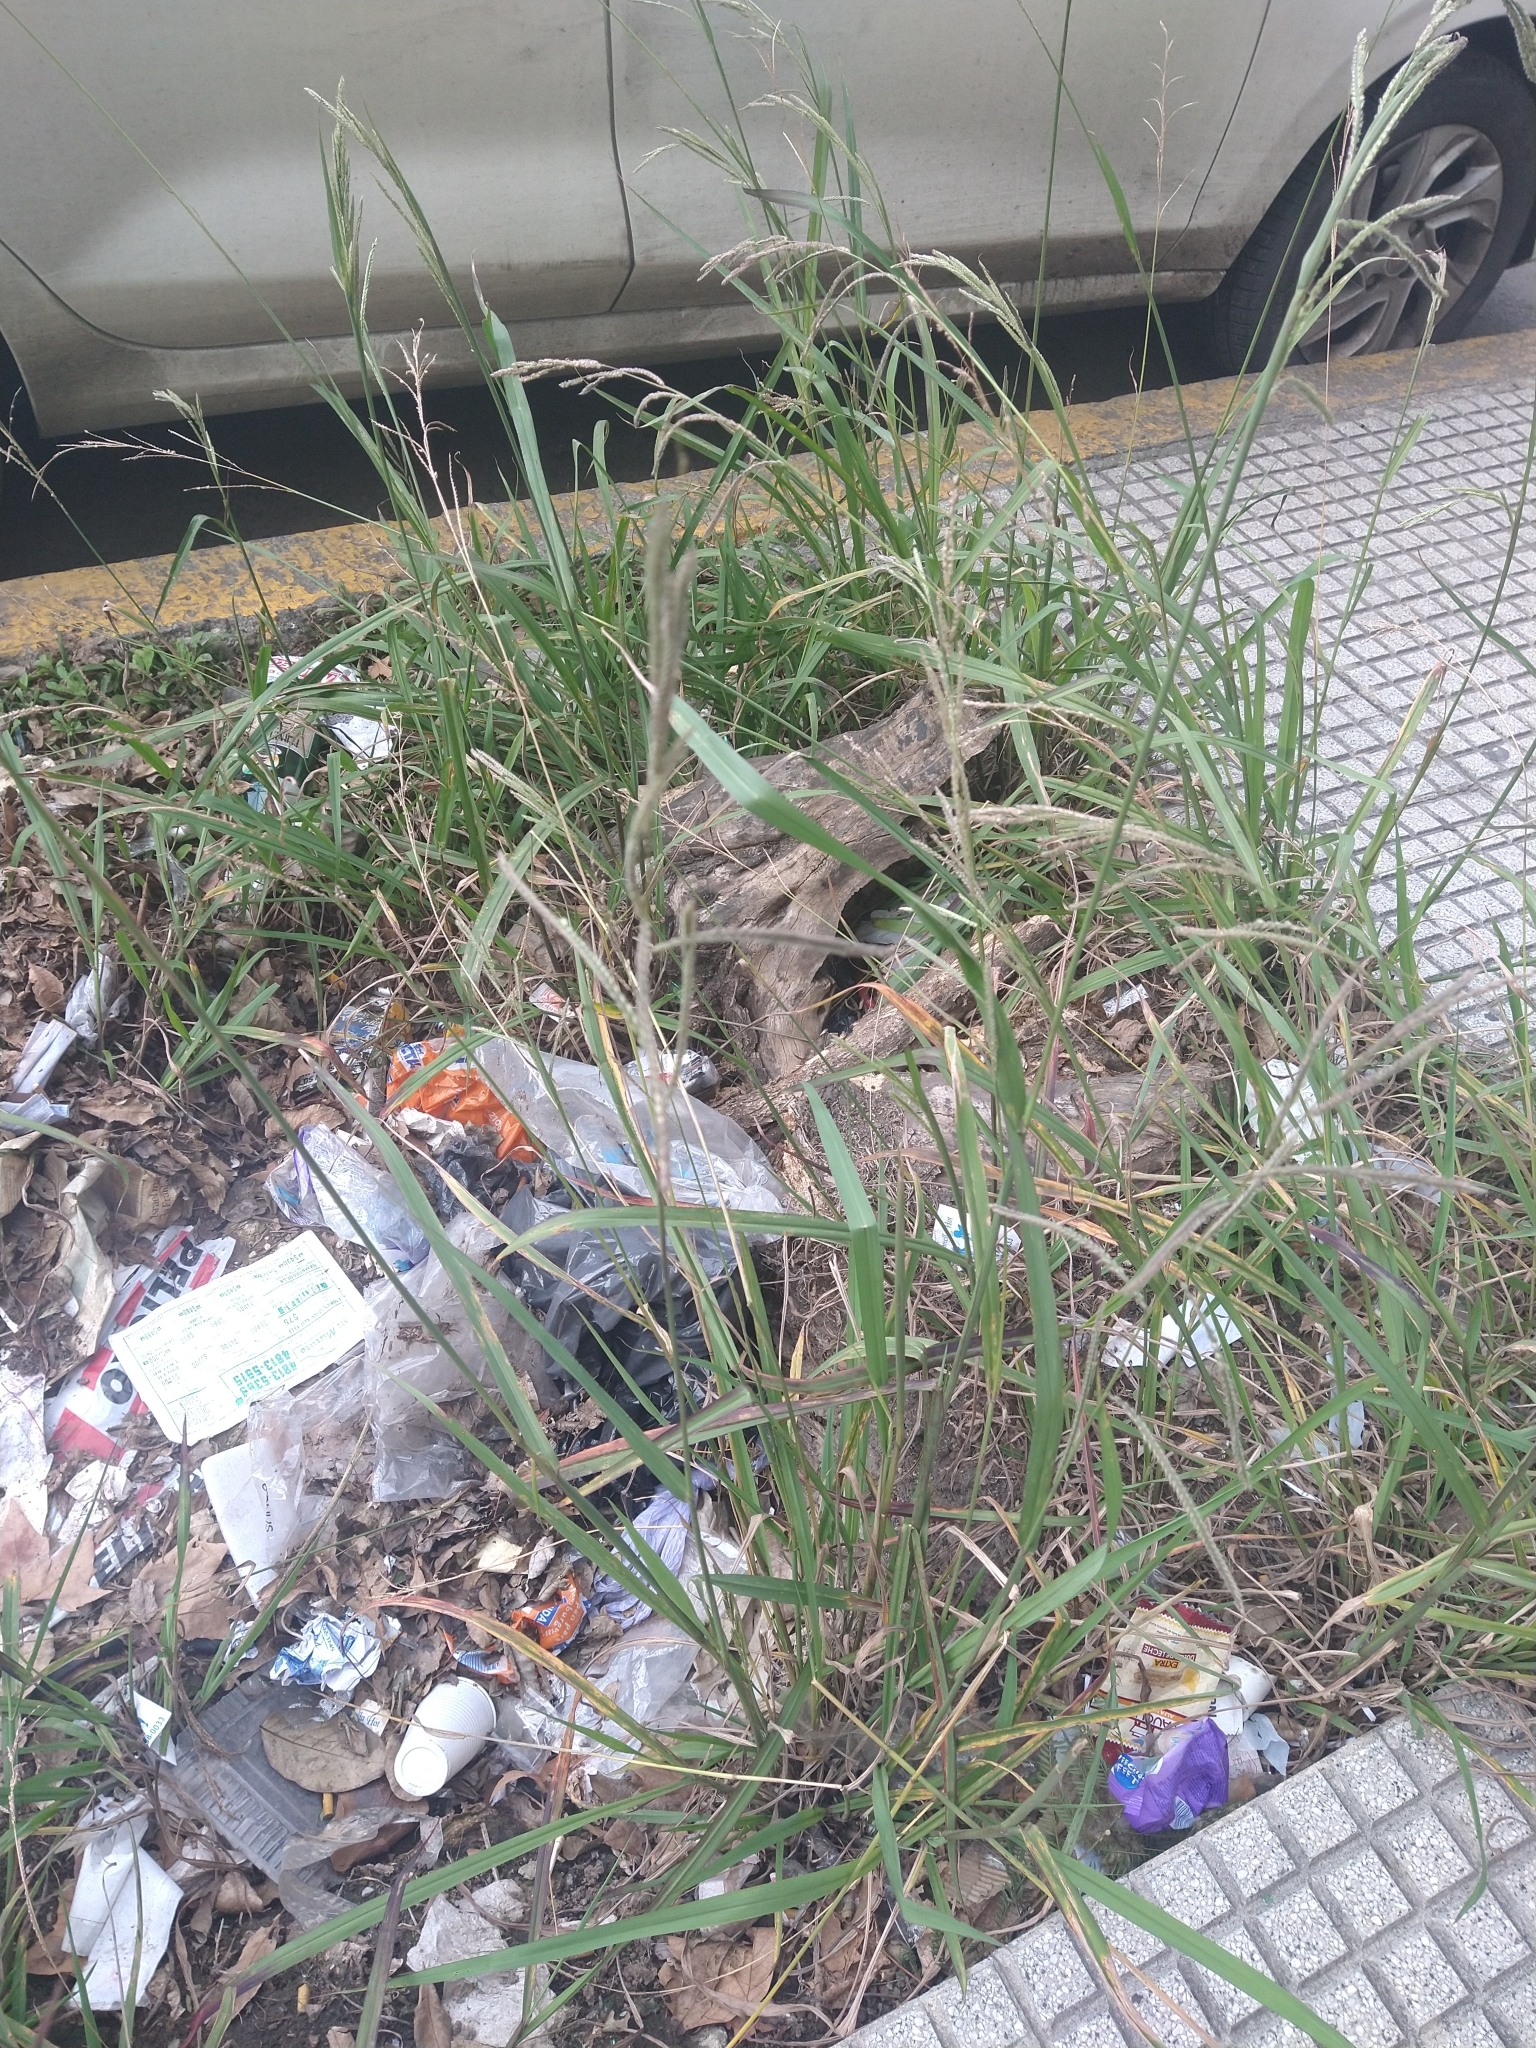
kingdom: Plantae
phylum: Tracheophyta
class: Liliopsida
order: Poales
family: Poaceae
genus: Paspalum
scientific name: Paspalum urvillei
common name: Vasey's grass
